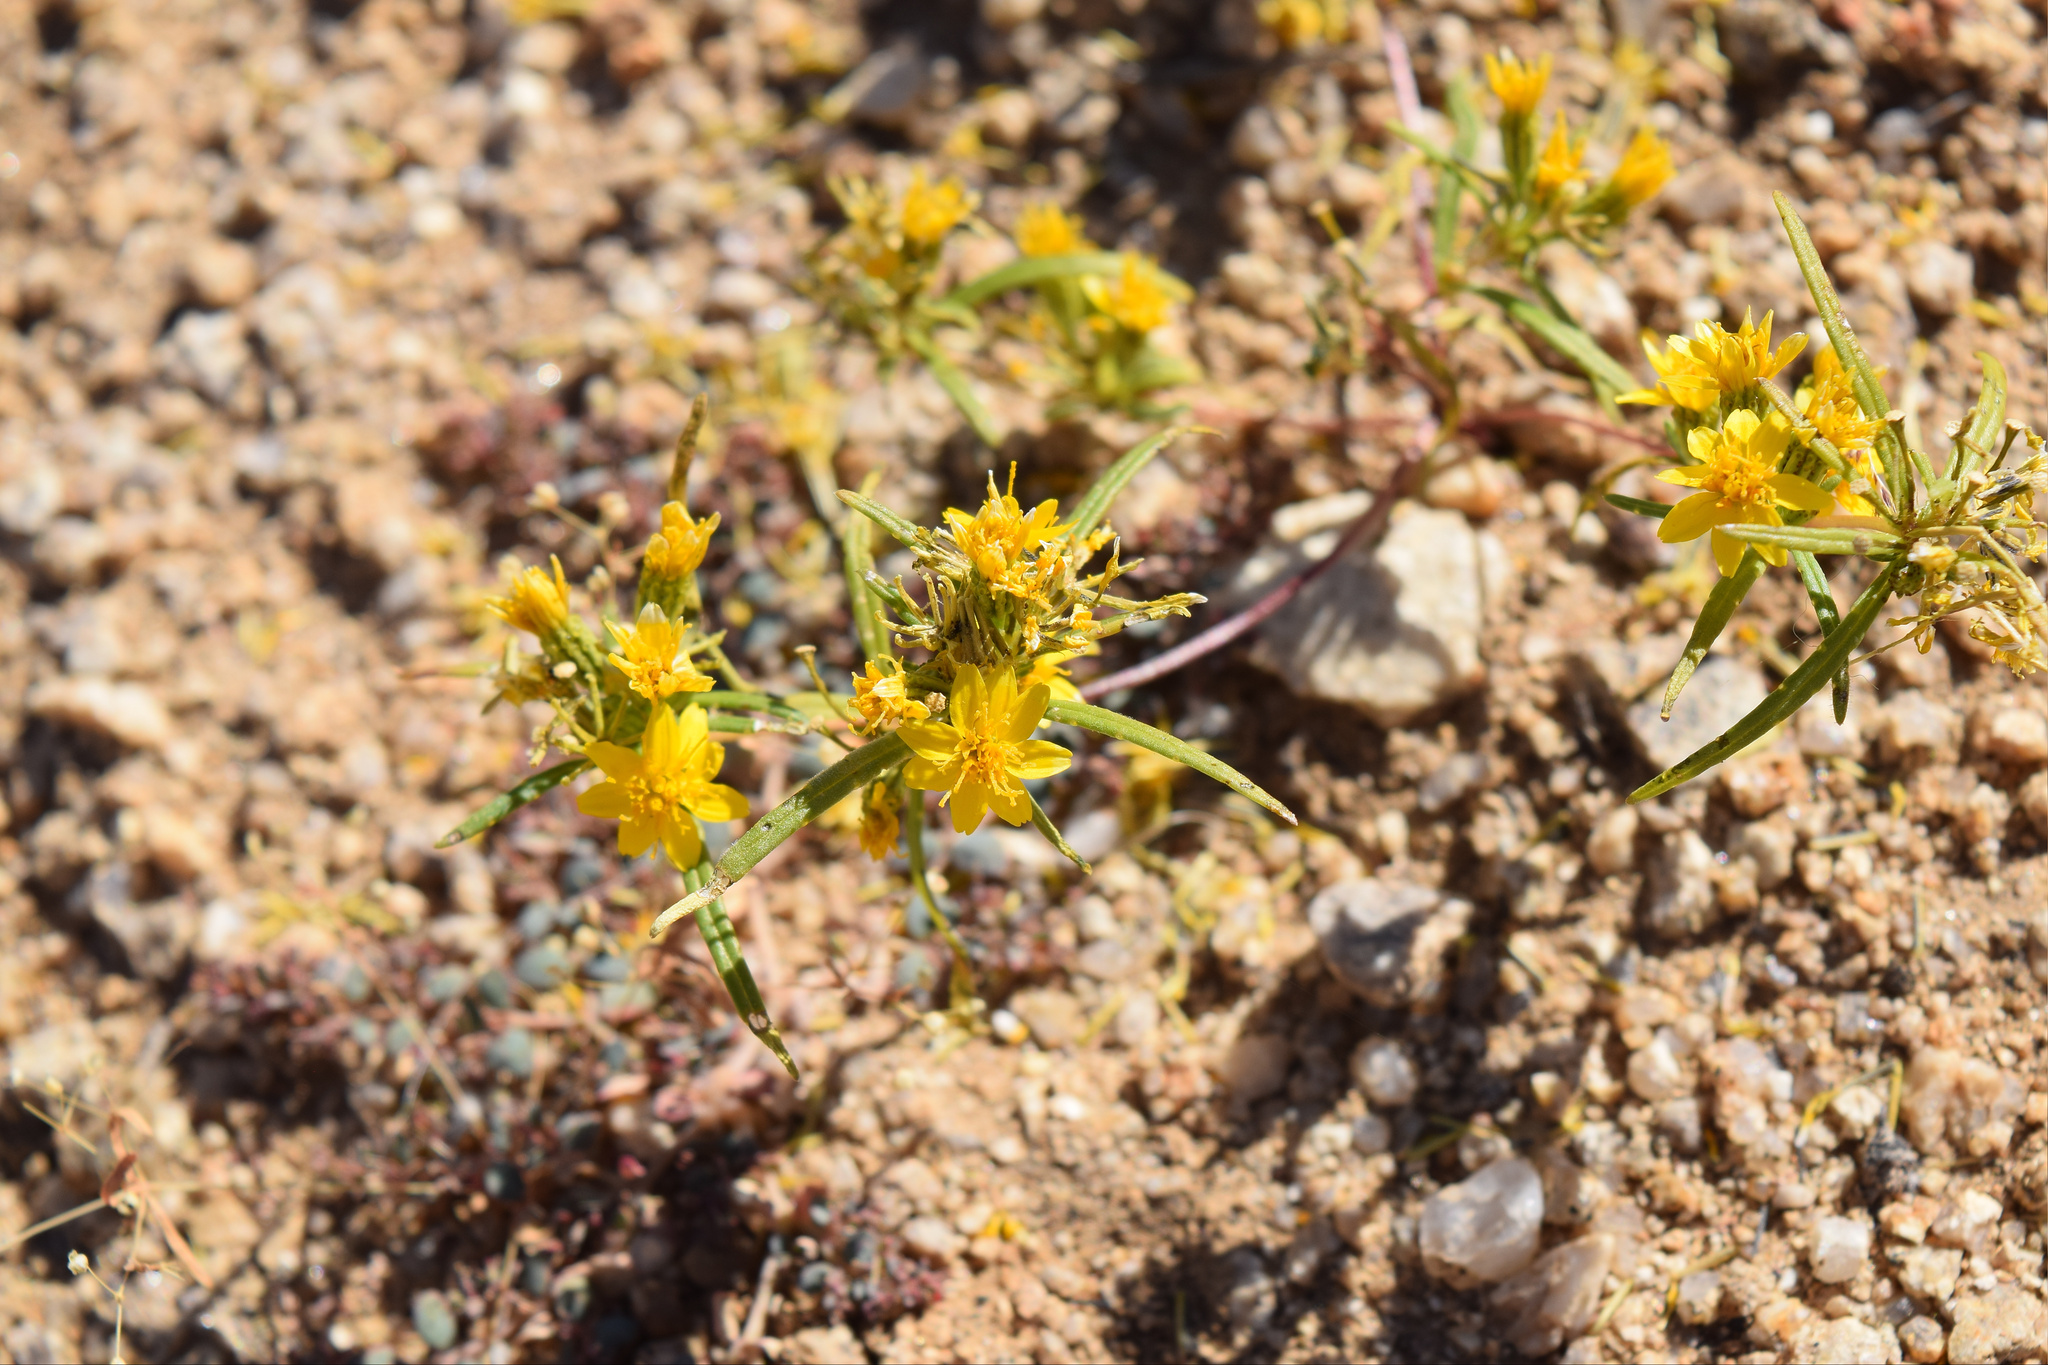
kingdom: Plantae
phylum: Tracheophyta
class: Magnoliopsida
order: Asterales
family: Asteraceae
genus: Pectis
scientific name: Pectis papposa
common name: Many-bristle chinchweed
